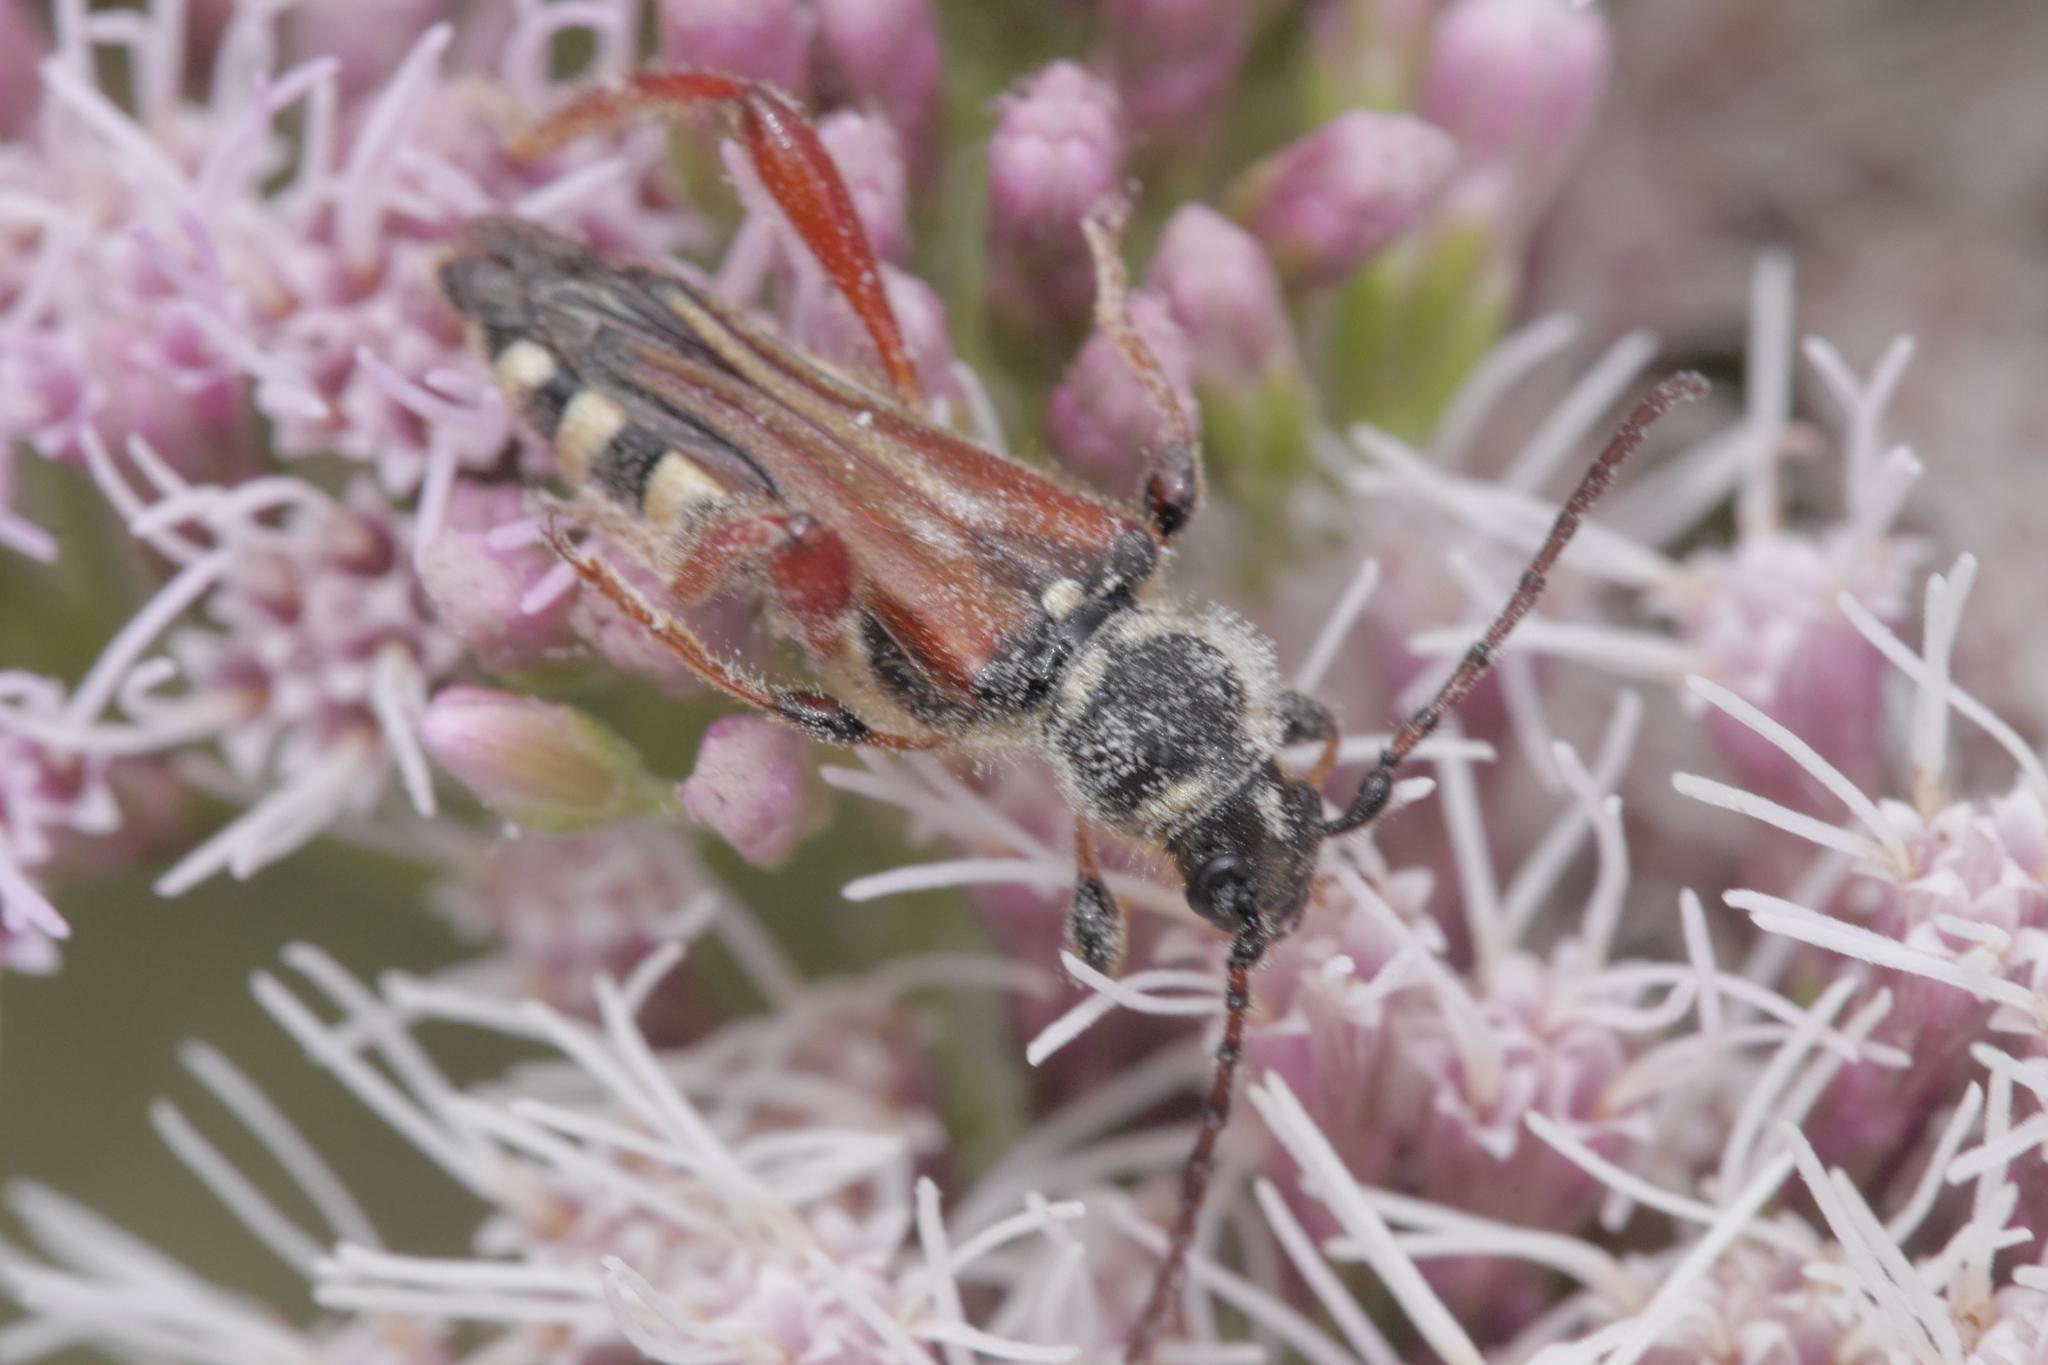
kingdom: Animalia
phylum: Arthropoda
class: Insecta
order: Coleoptera
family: Cerambycidae
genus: Stenopterus
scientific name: Stenopterus rufus
